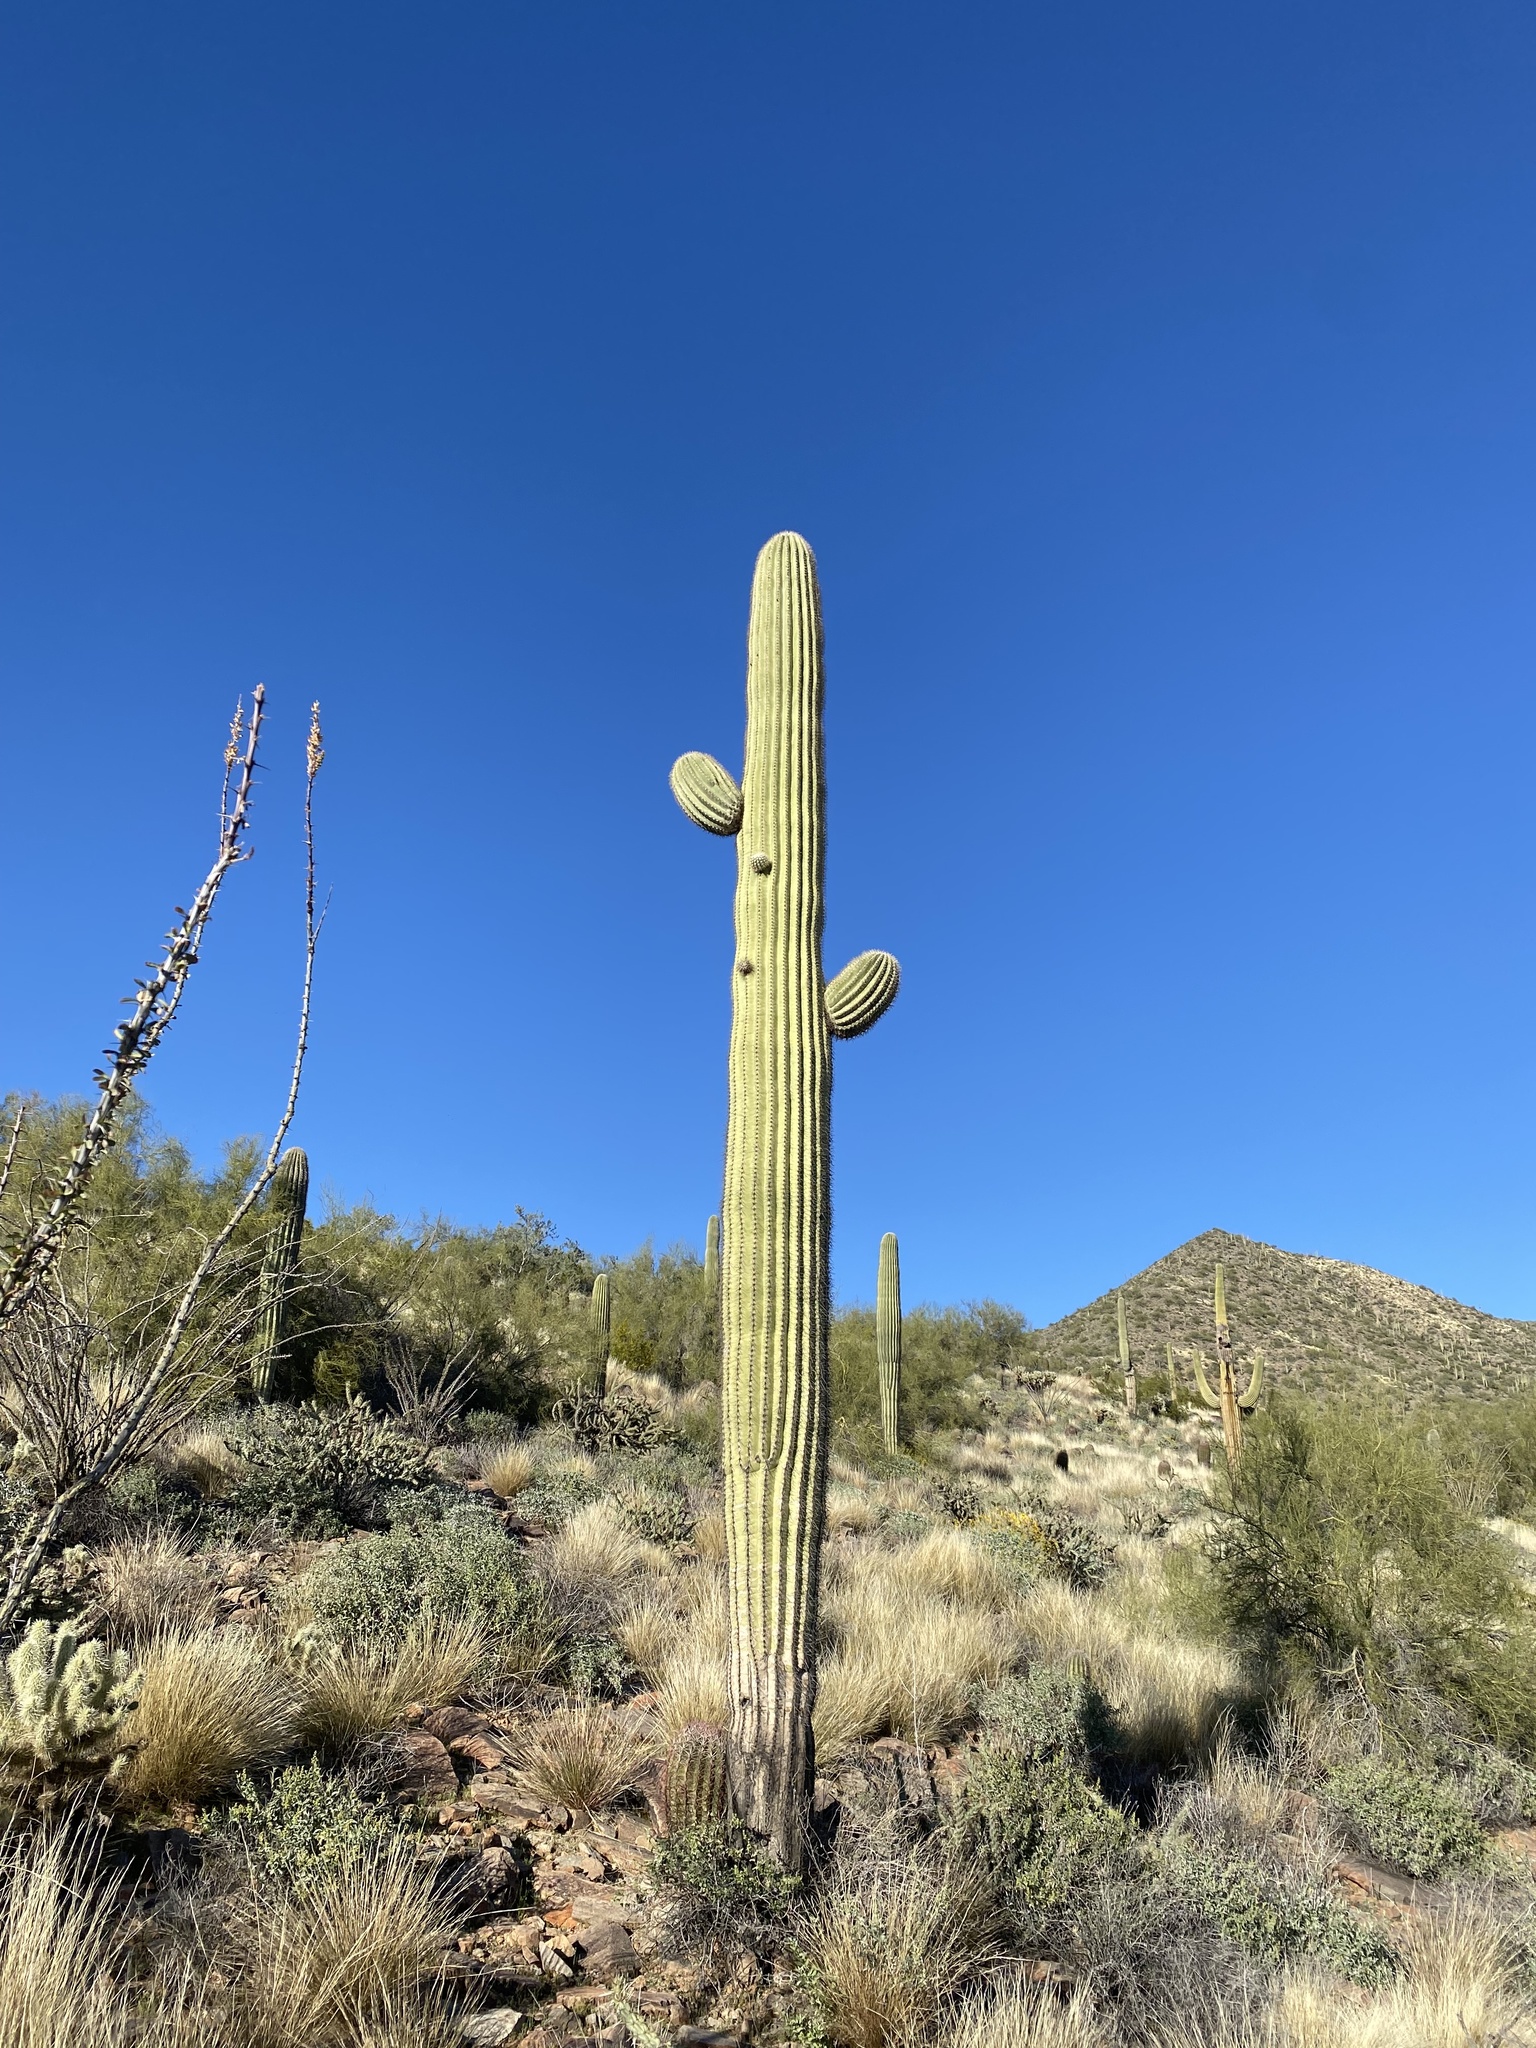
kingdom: Plantae
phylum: Tracheophyta
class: Magnoliopsida
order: Caryophyllales
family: Cactaceae
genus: Carnegiea
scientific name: Carnegiea gigantea
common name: Saguaro
